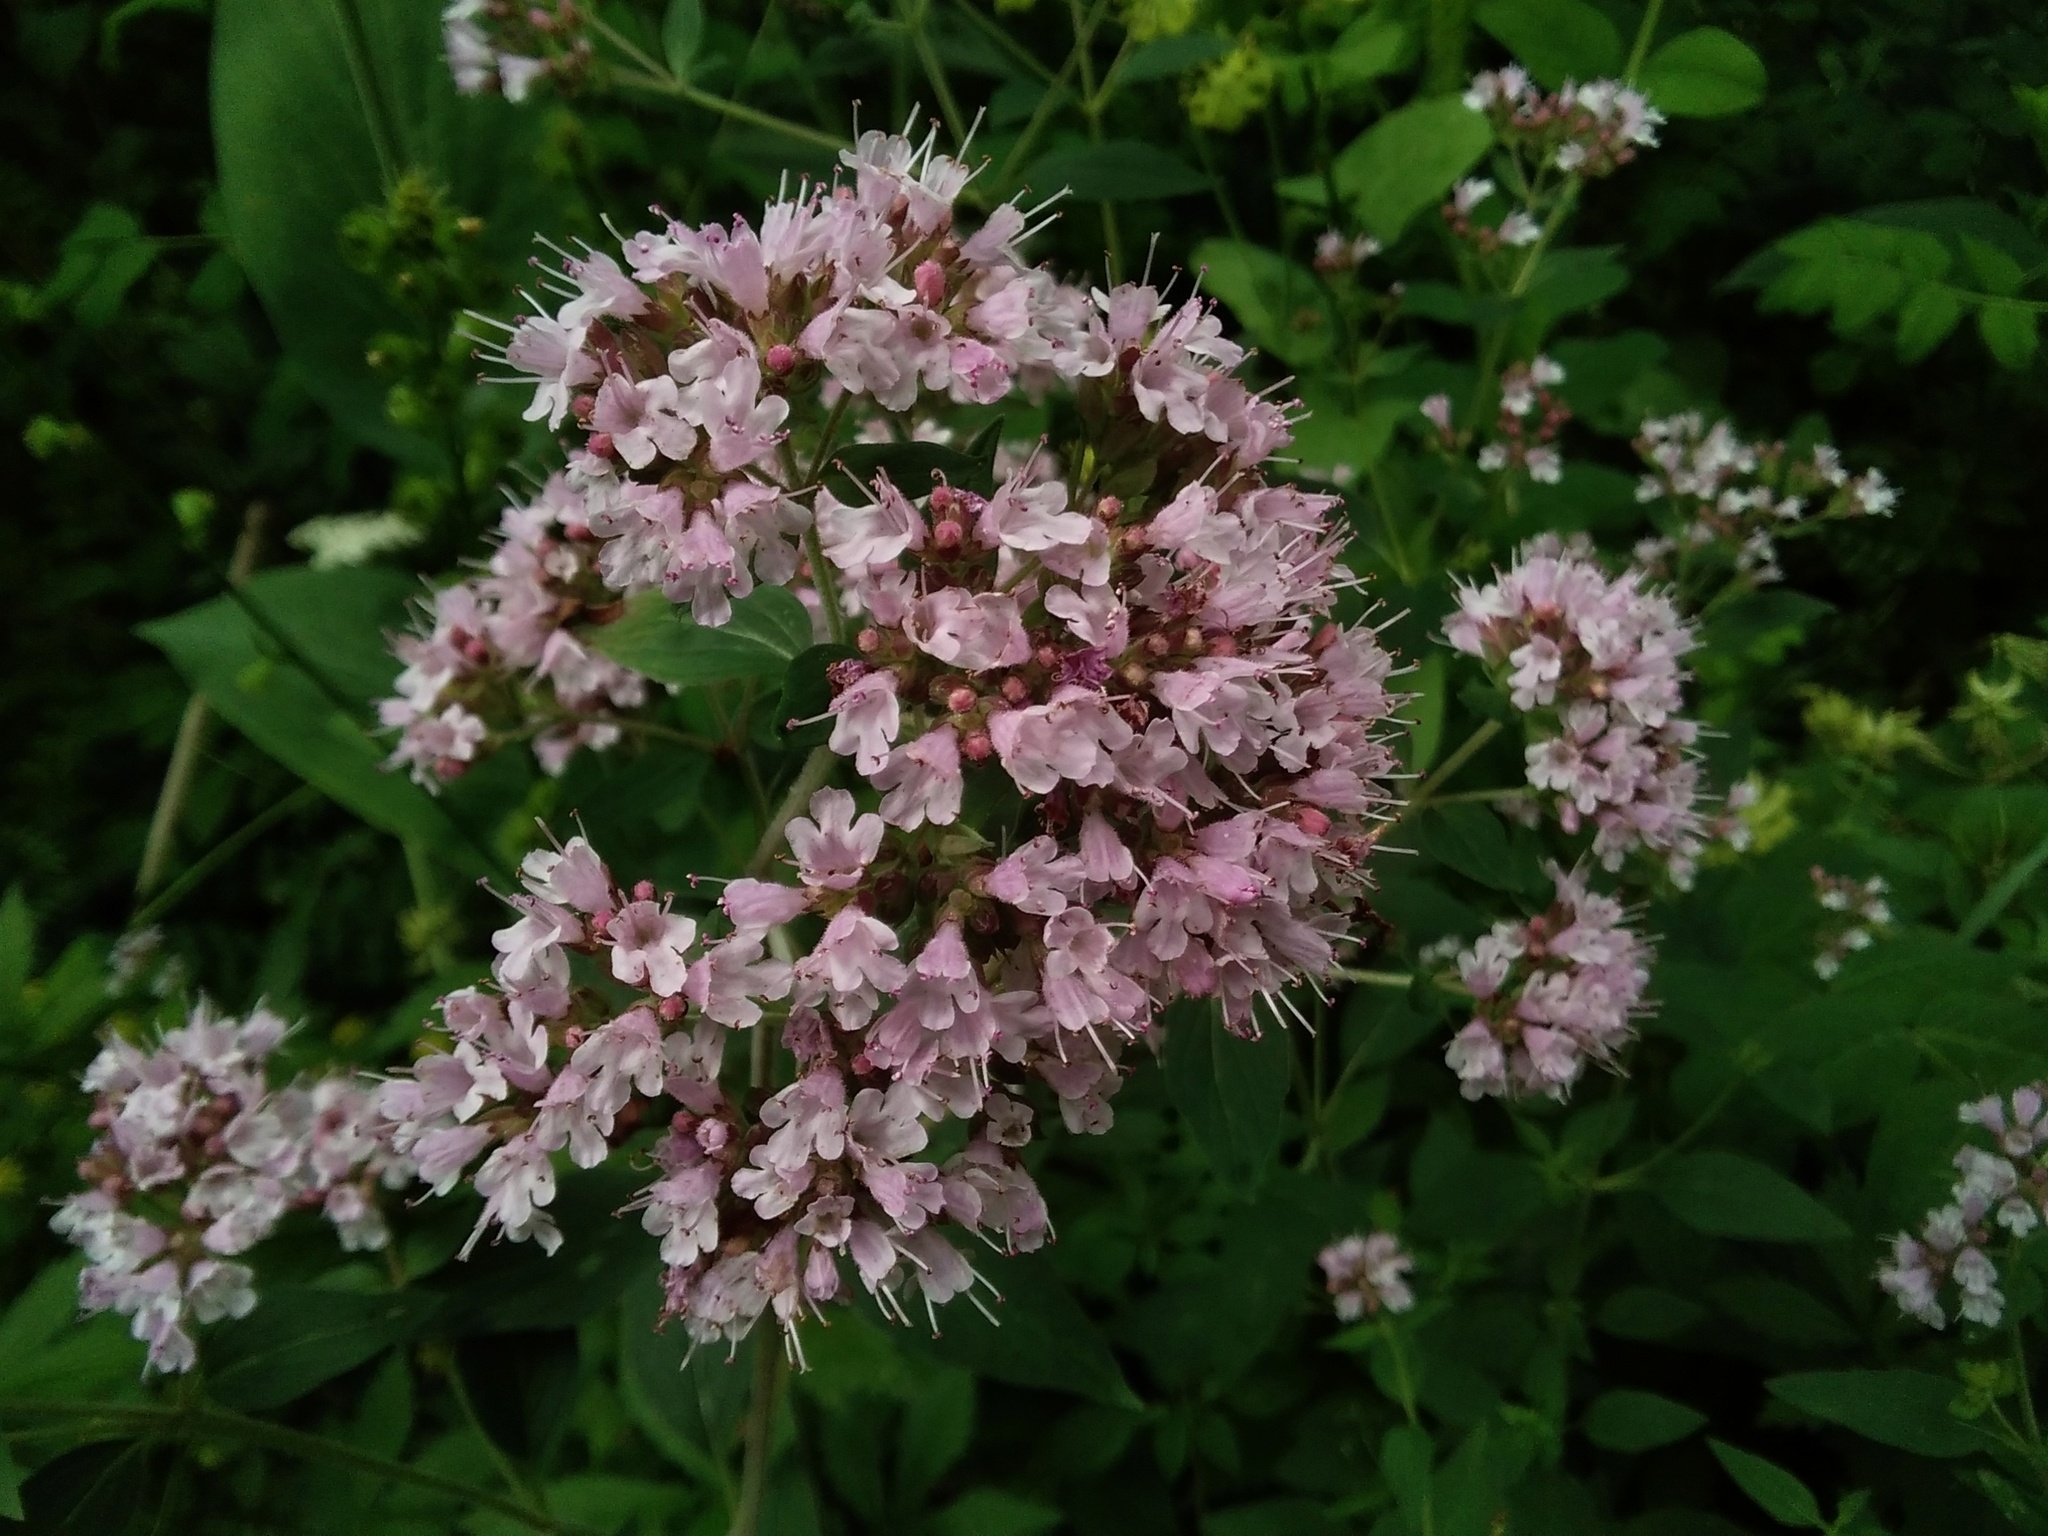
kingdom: Plantae
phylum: Tracheophyta
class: Magnoliopsida
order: Lamiales
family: Lamiaceae
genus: Origanum
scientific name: Origanum vulgare
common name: Wild marjoram
